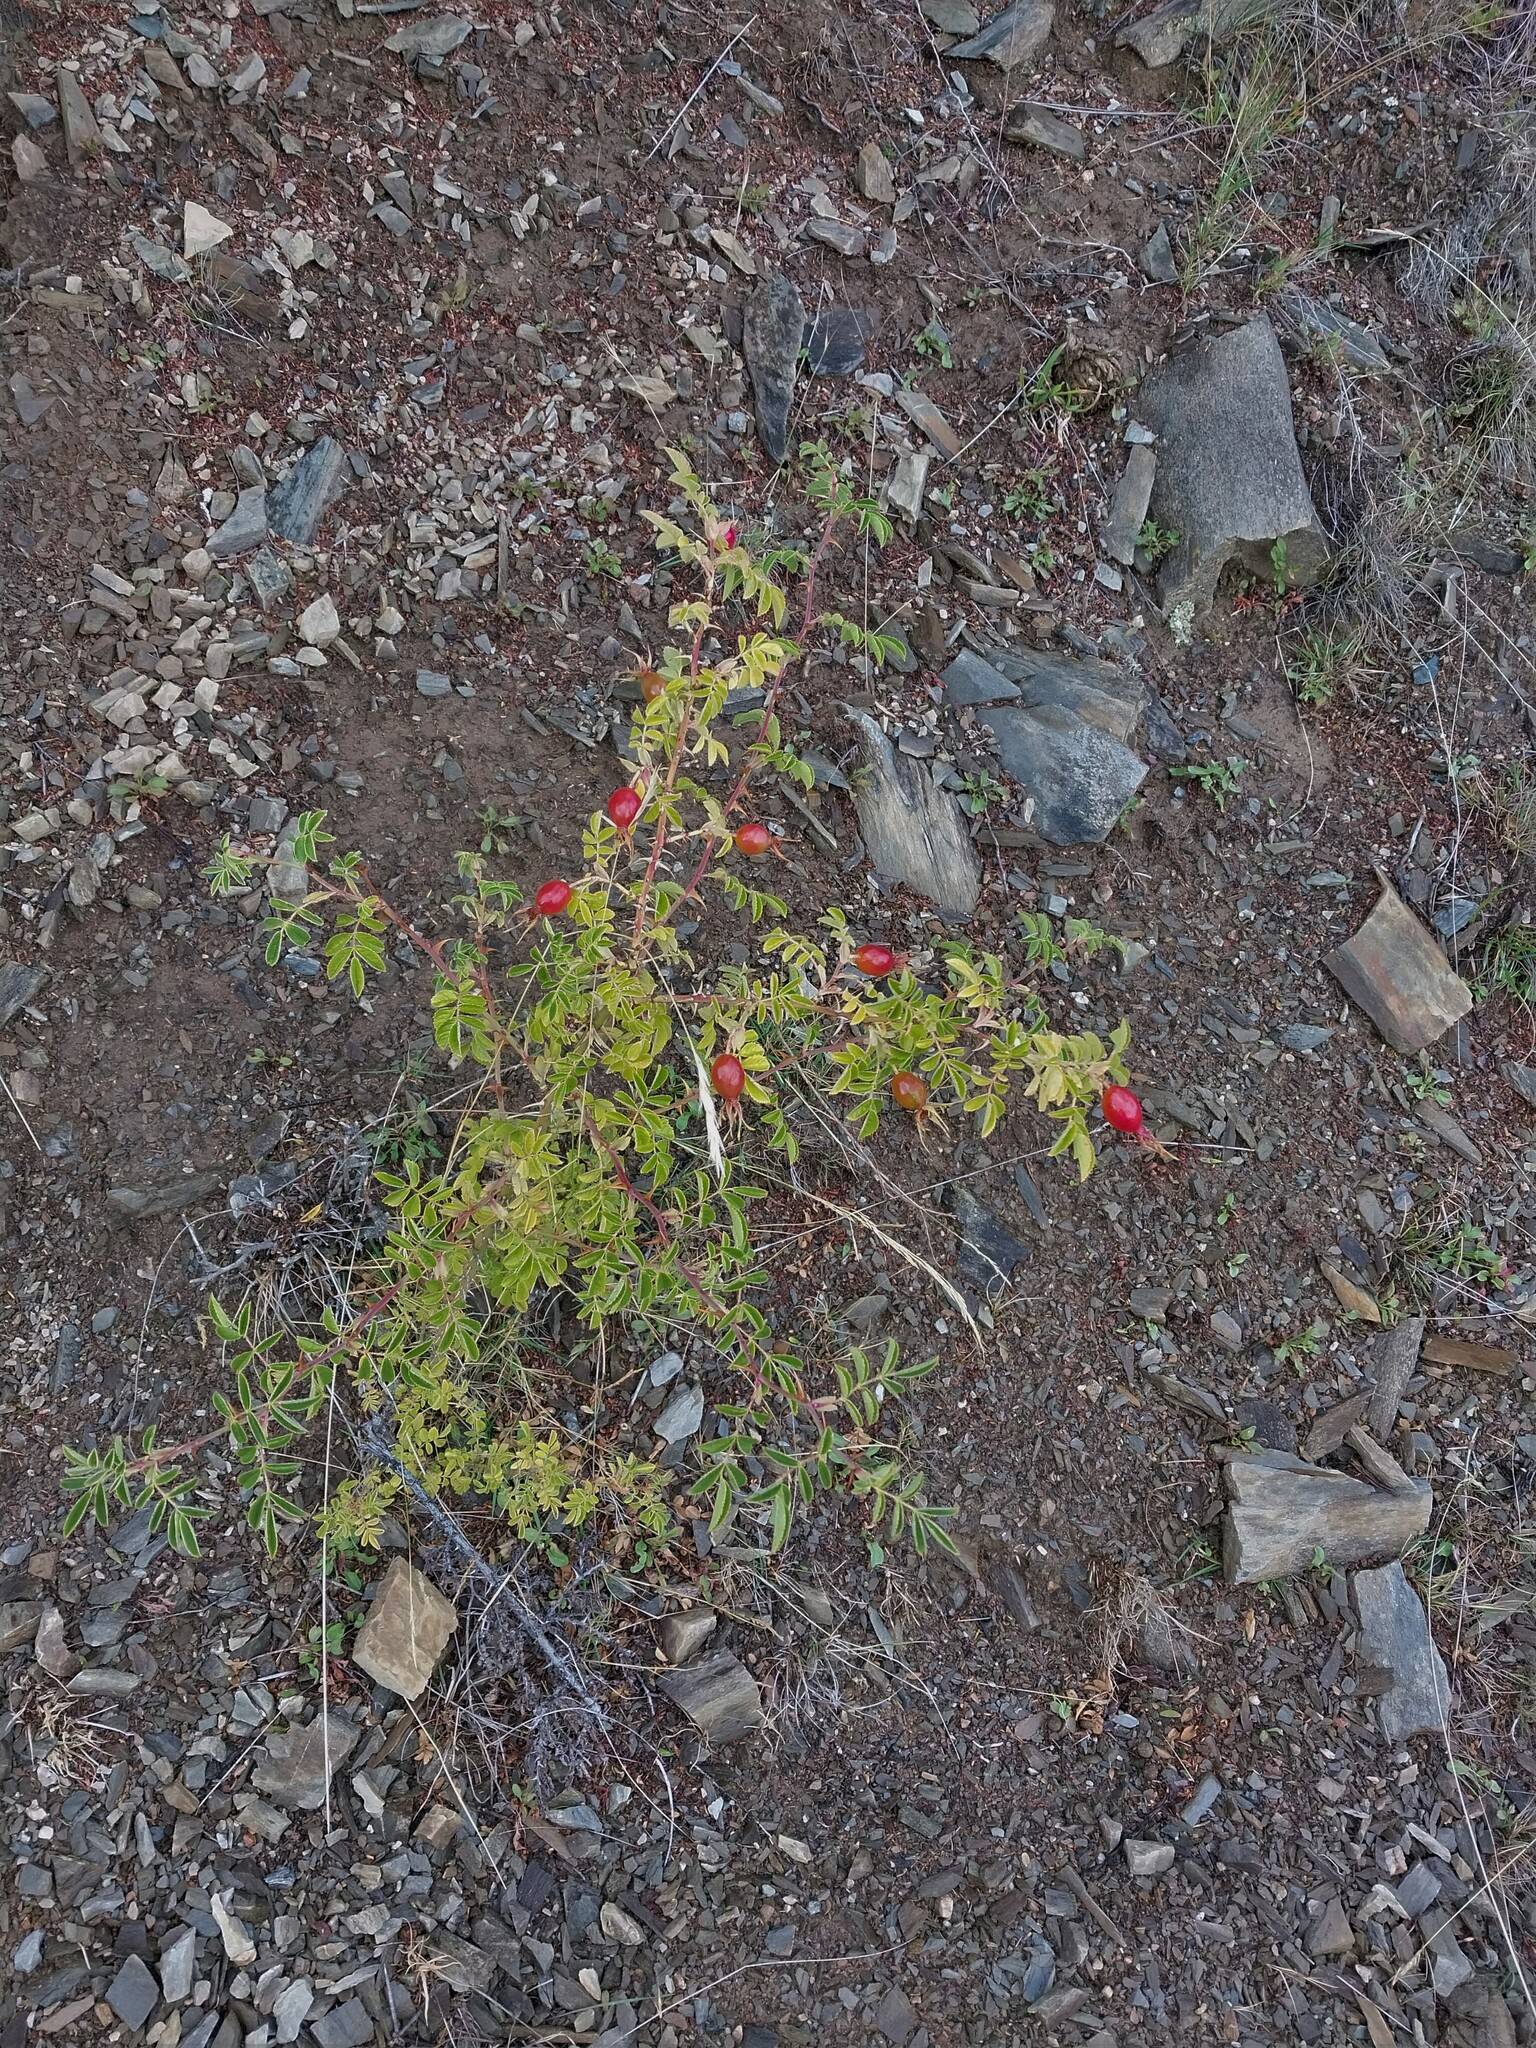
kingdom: Plantae
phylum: Tracheophyta
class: Magnoliopsida
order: Rosales
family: Rosaceae
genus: Rosa
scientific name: Rosa rubiginosa
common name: Sweet-briar
